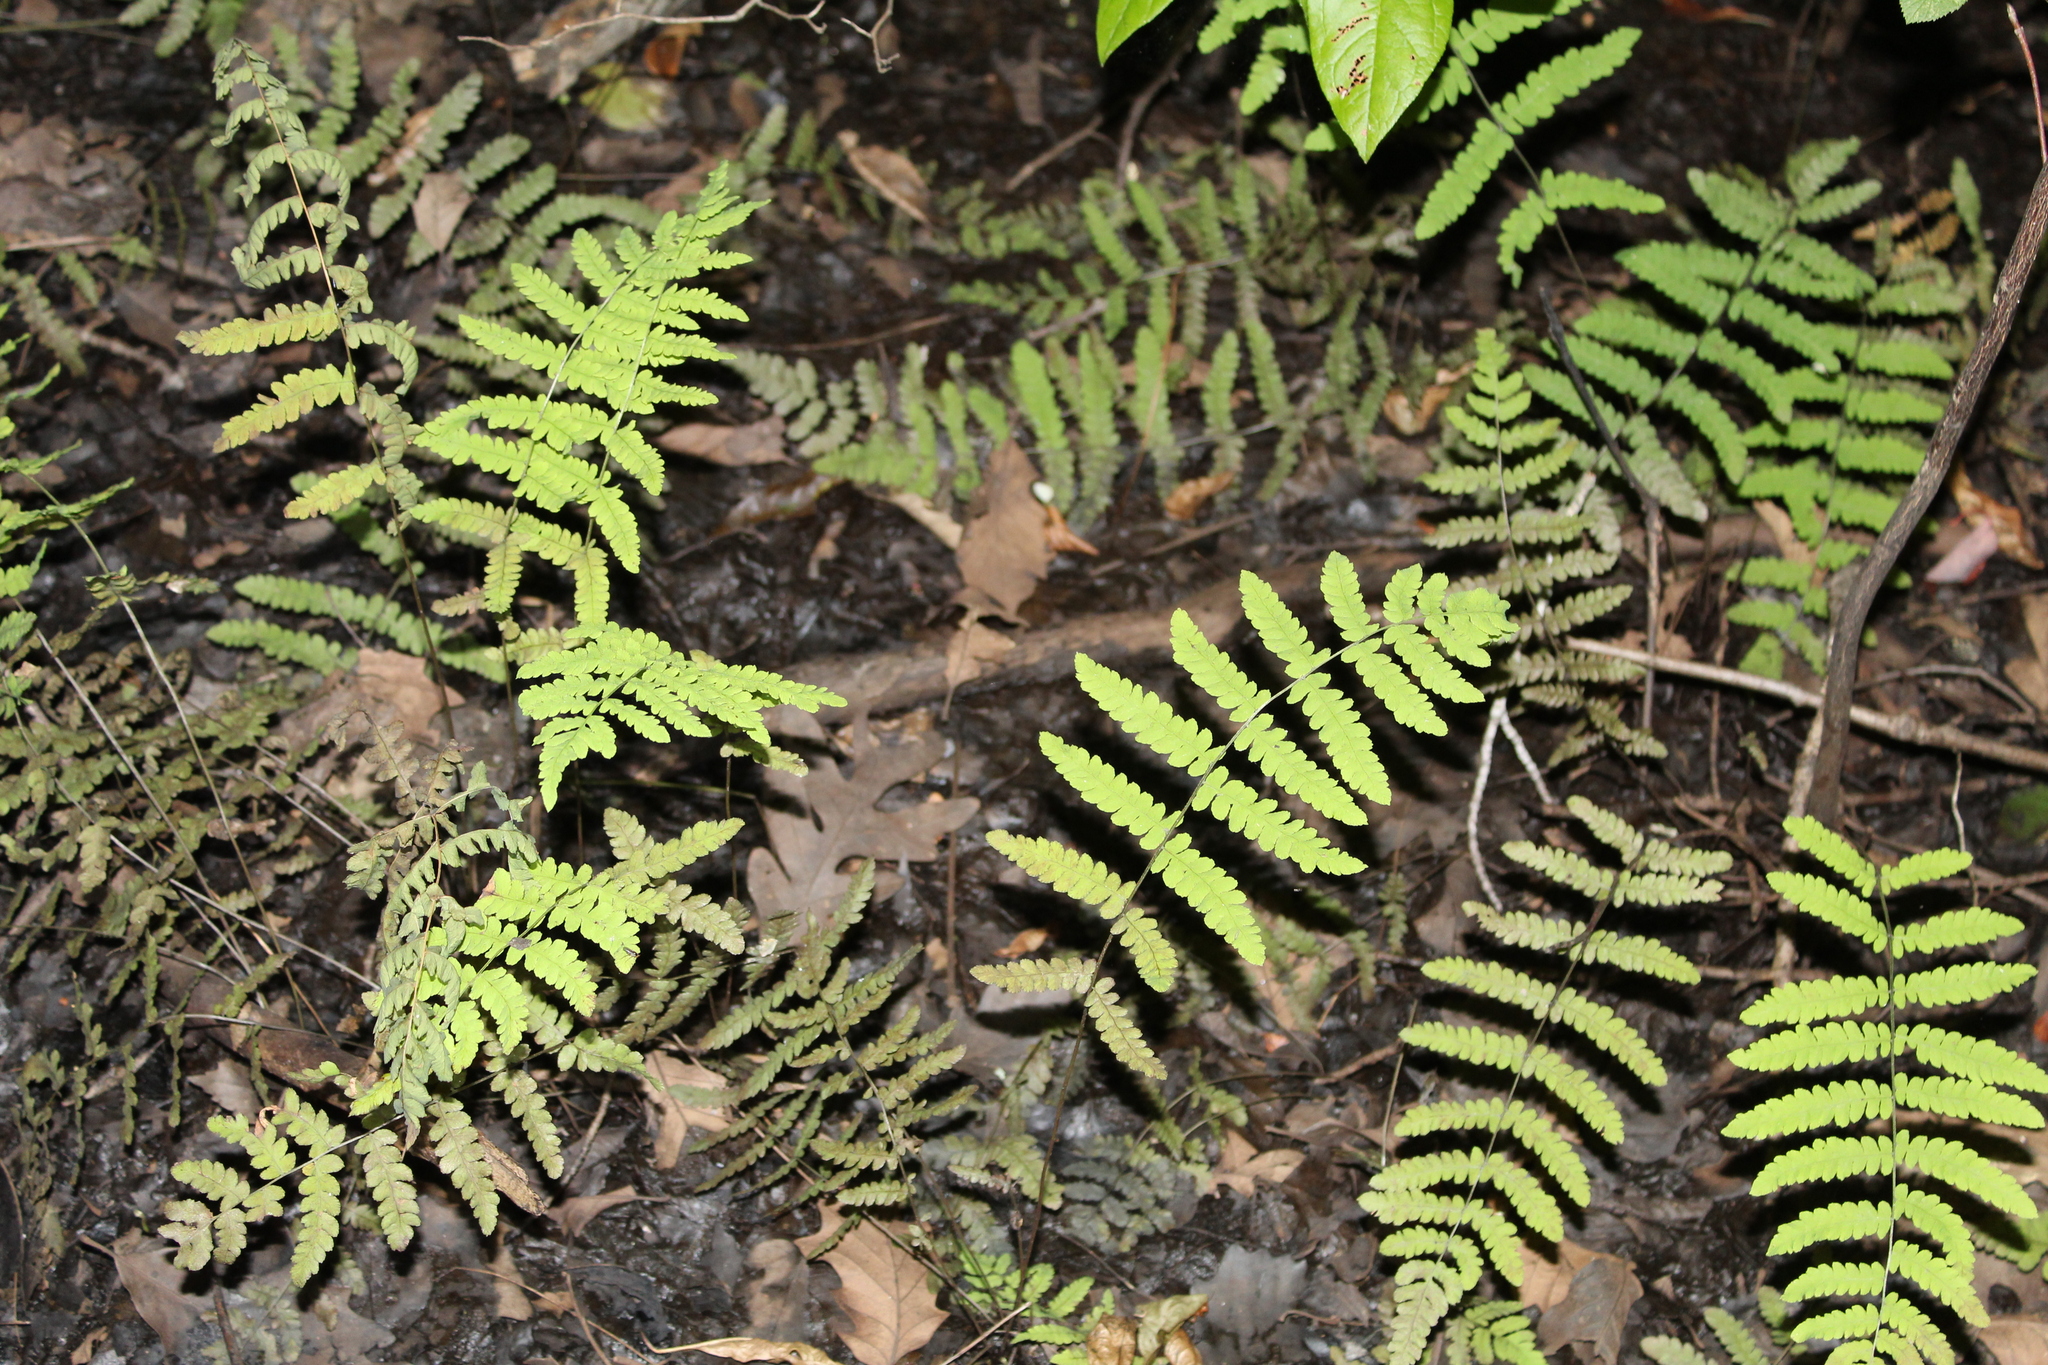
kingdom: Plantae
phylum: Tracheophyta
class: Polypodiopsida
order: Polypodiales
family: Thelypteridaceae
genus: Thelypteris
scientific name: Thelypteris palustris
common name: Marsh fern
